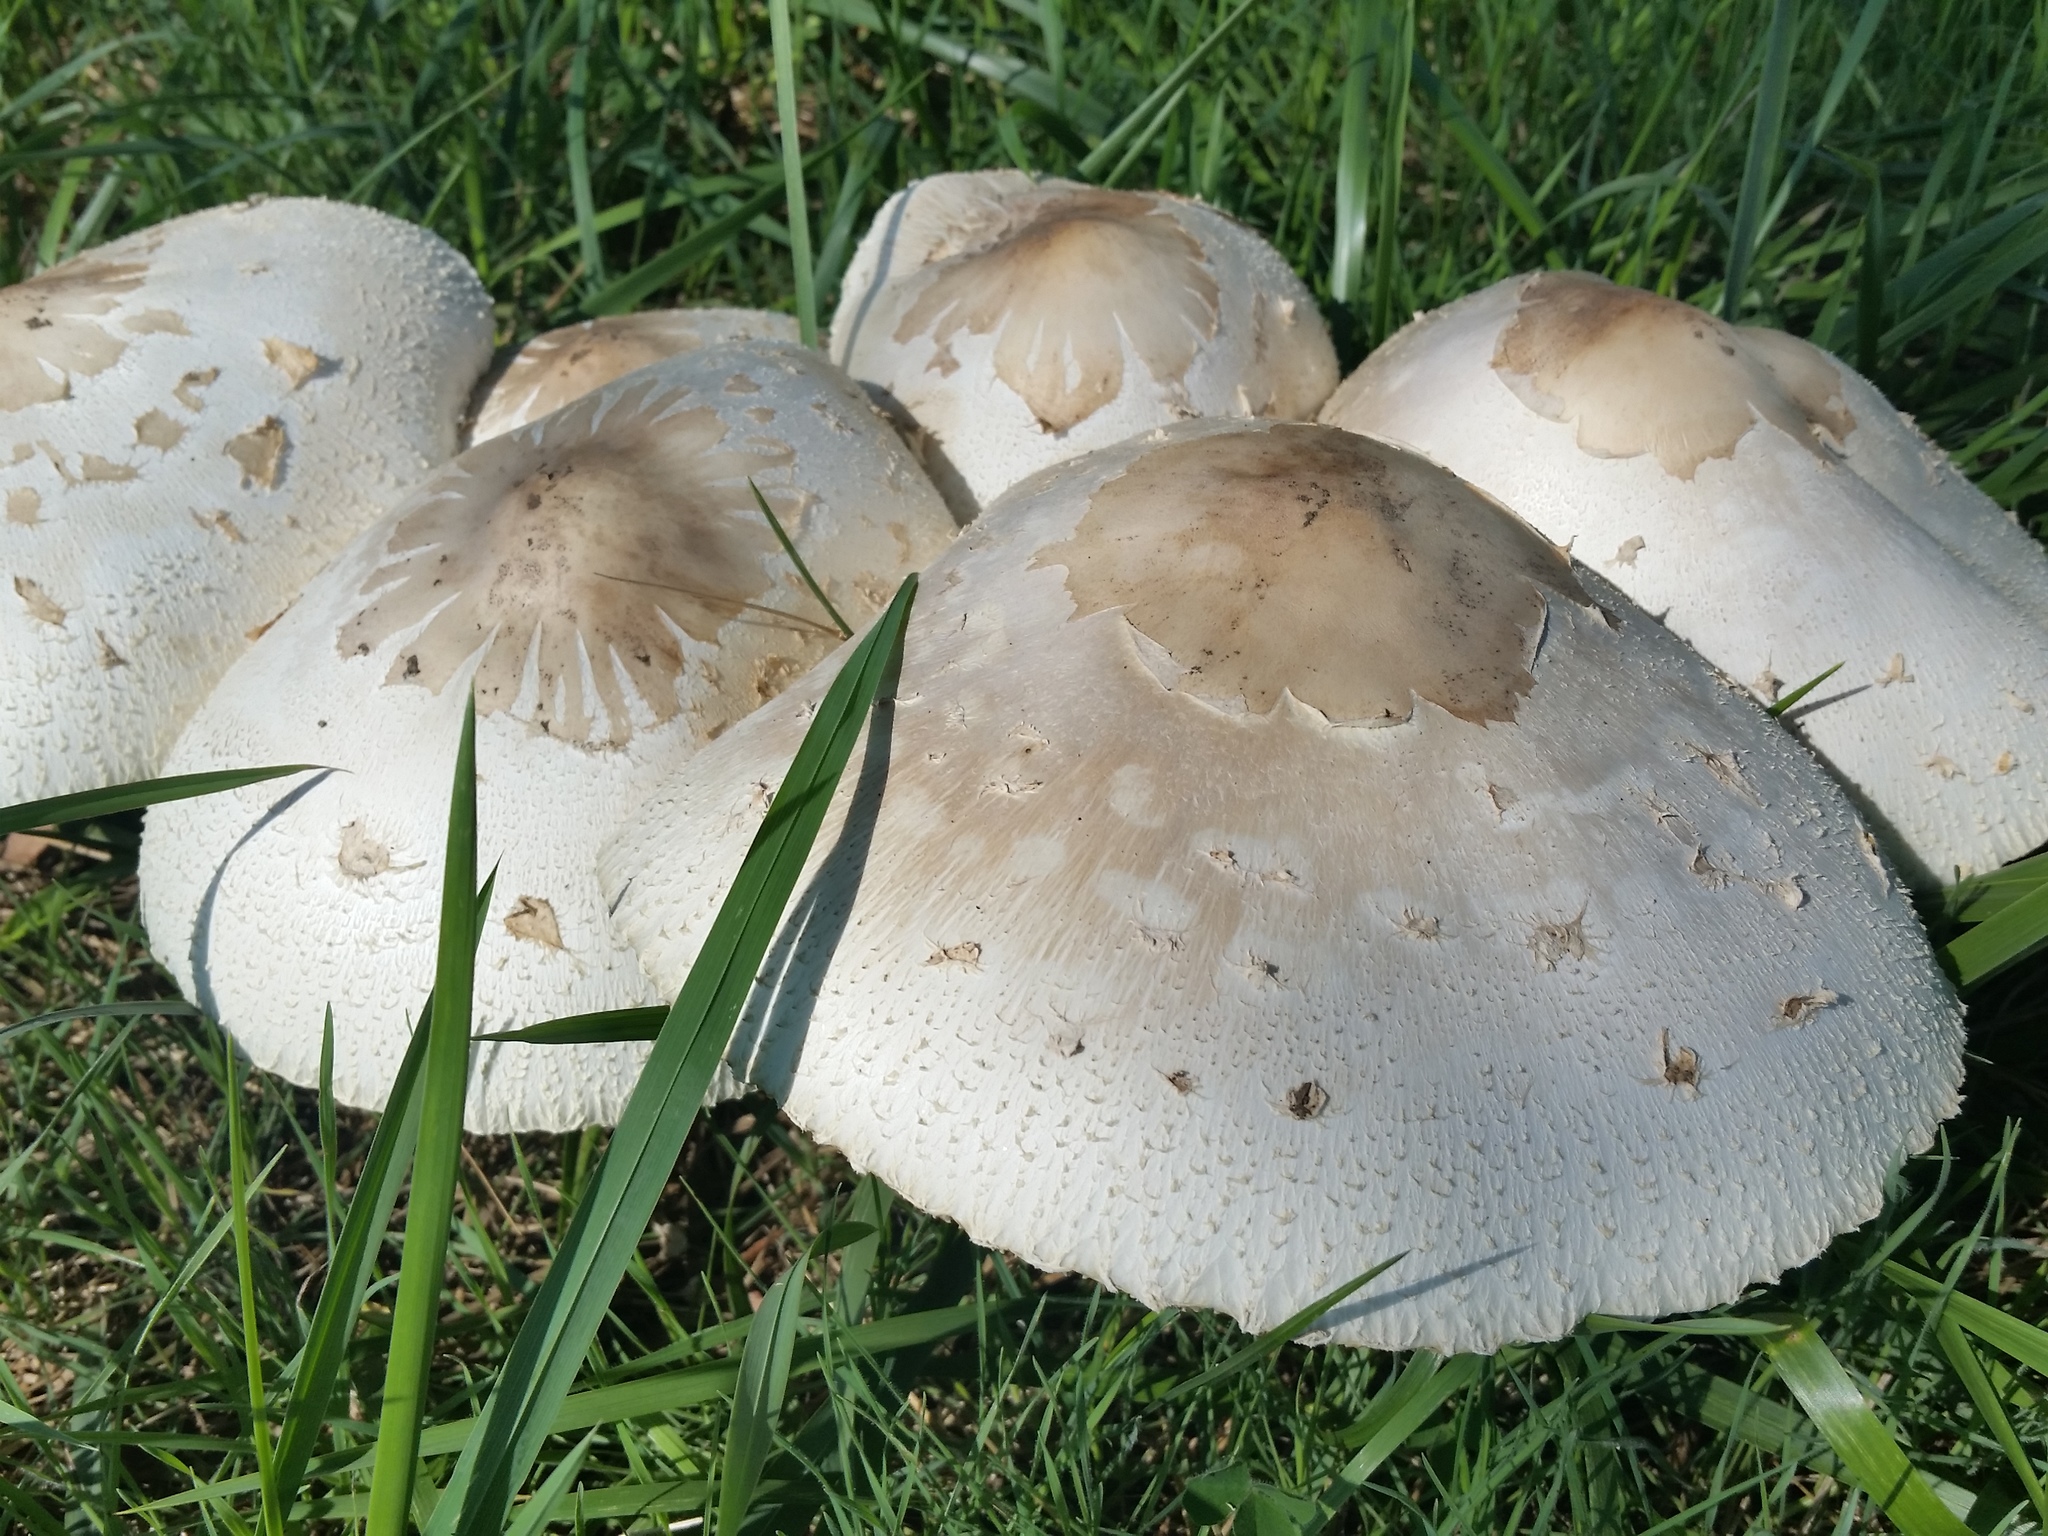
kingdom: Fungi
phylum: Basidiomycota
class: Agaricomycetes
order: Agaricales
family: Agaricaceae
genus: Chlorophyllum
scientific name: Chlorophyllum molybdites
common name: False parasol
